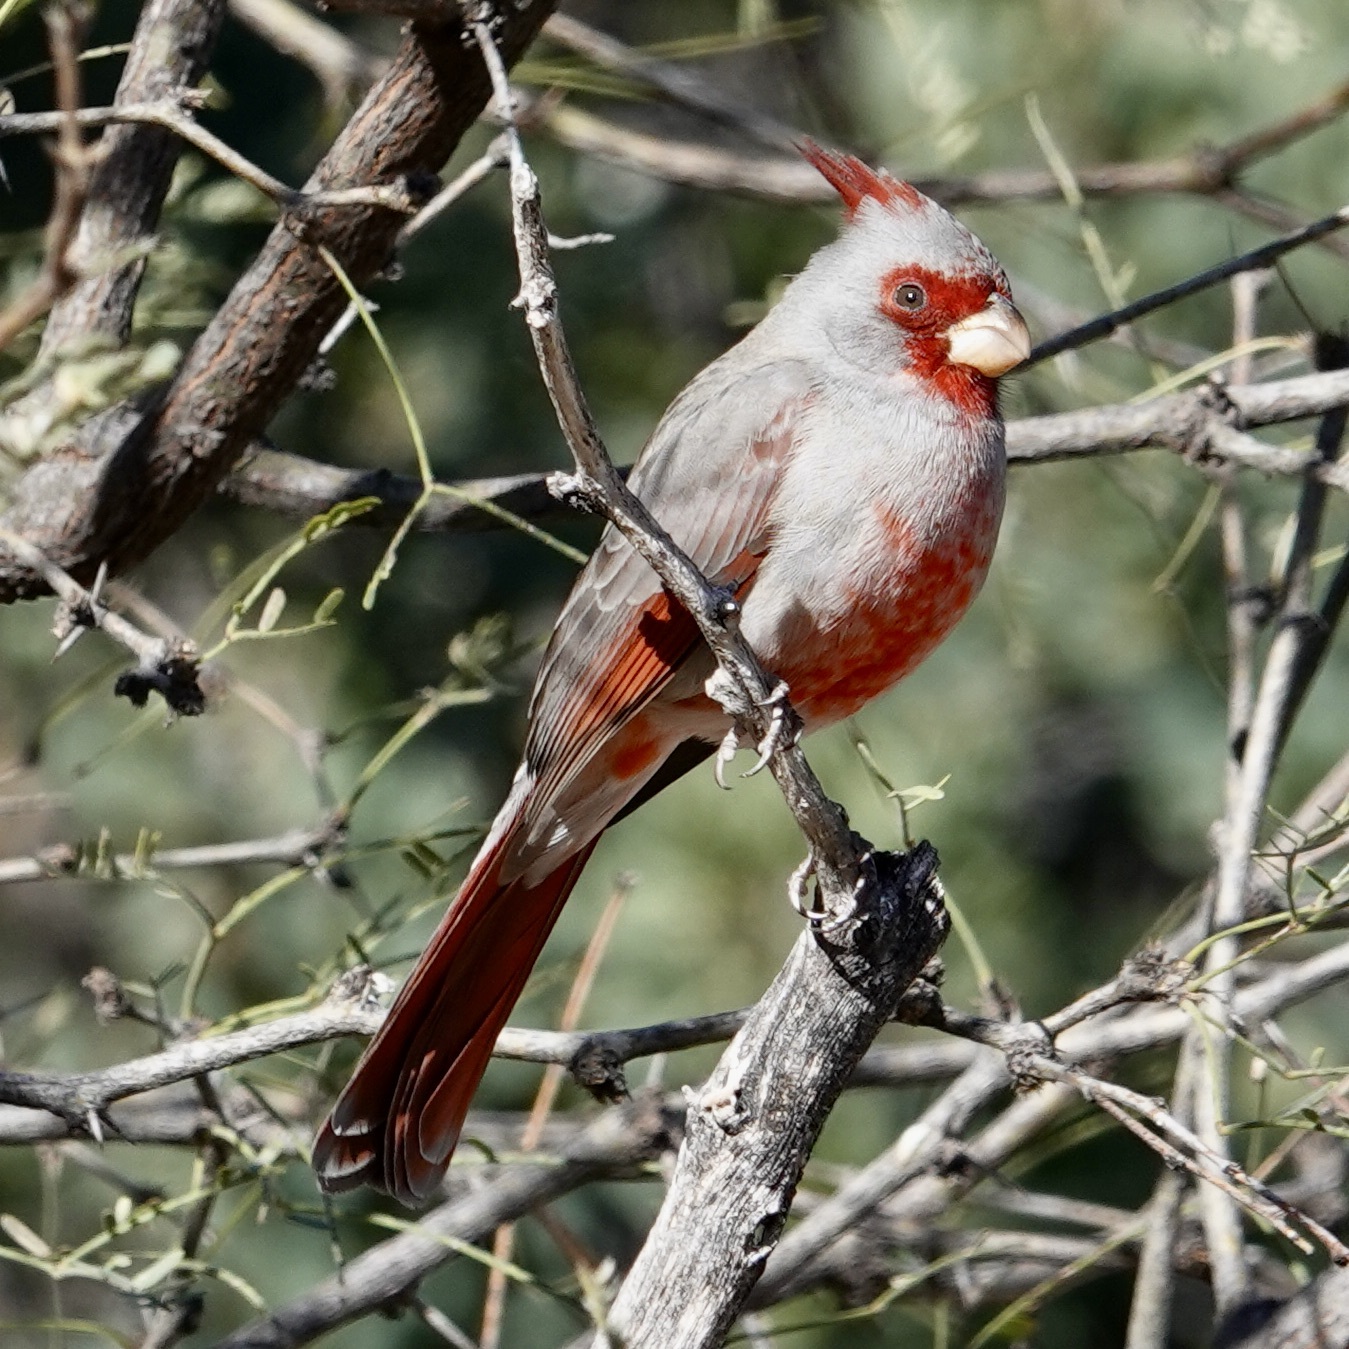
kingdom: Animalia
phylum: Chordata
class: Aves
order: Passeriformes
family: Cardinalidae
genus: Cardinalis
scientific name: Cardinalis sinuatus
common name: Pyrrhuloxia
